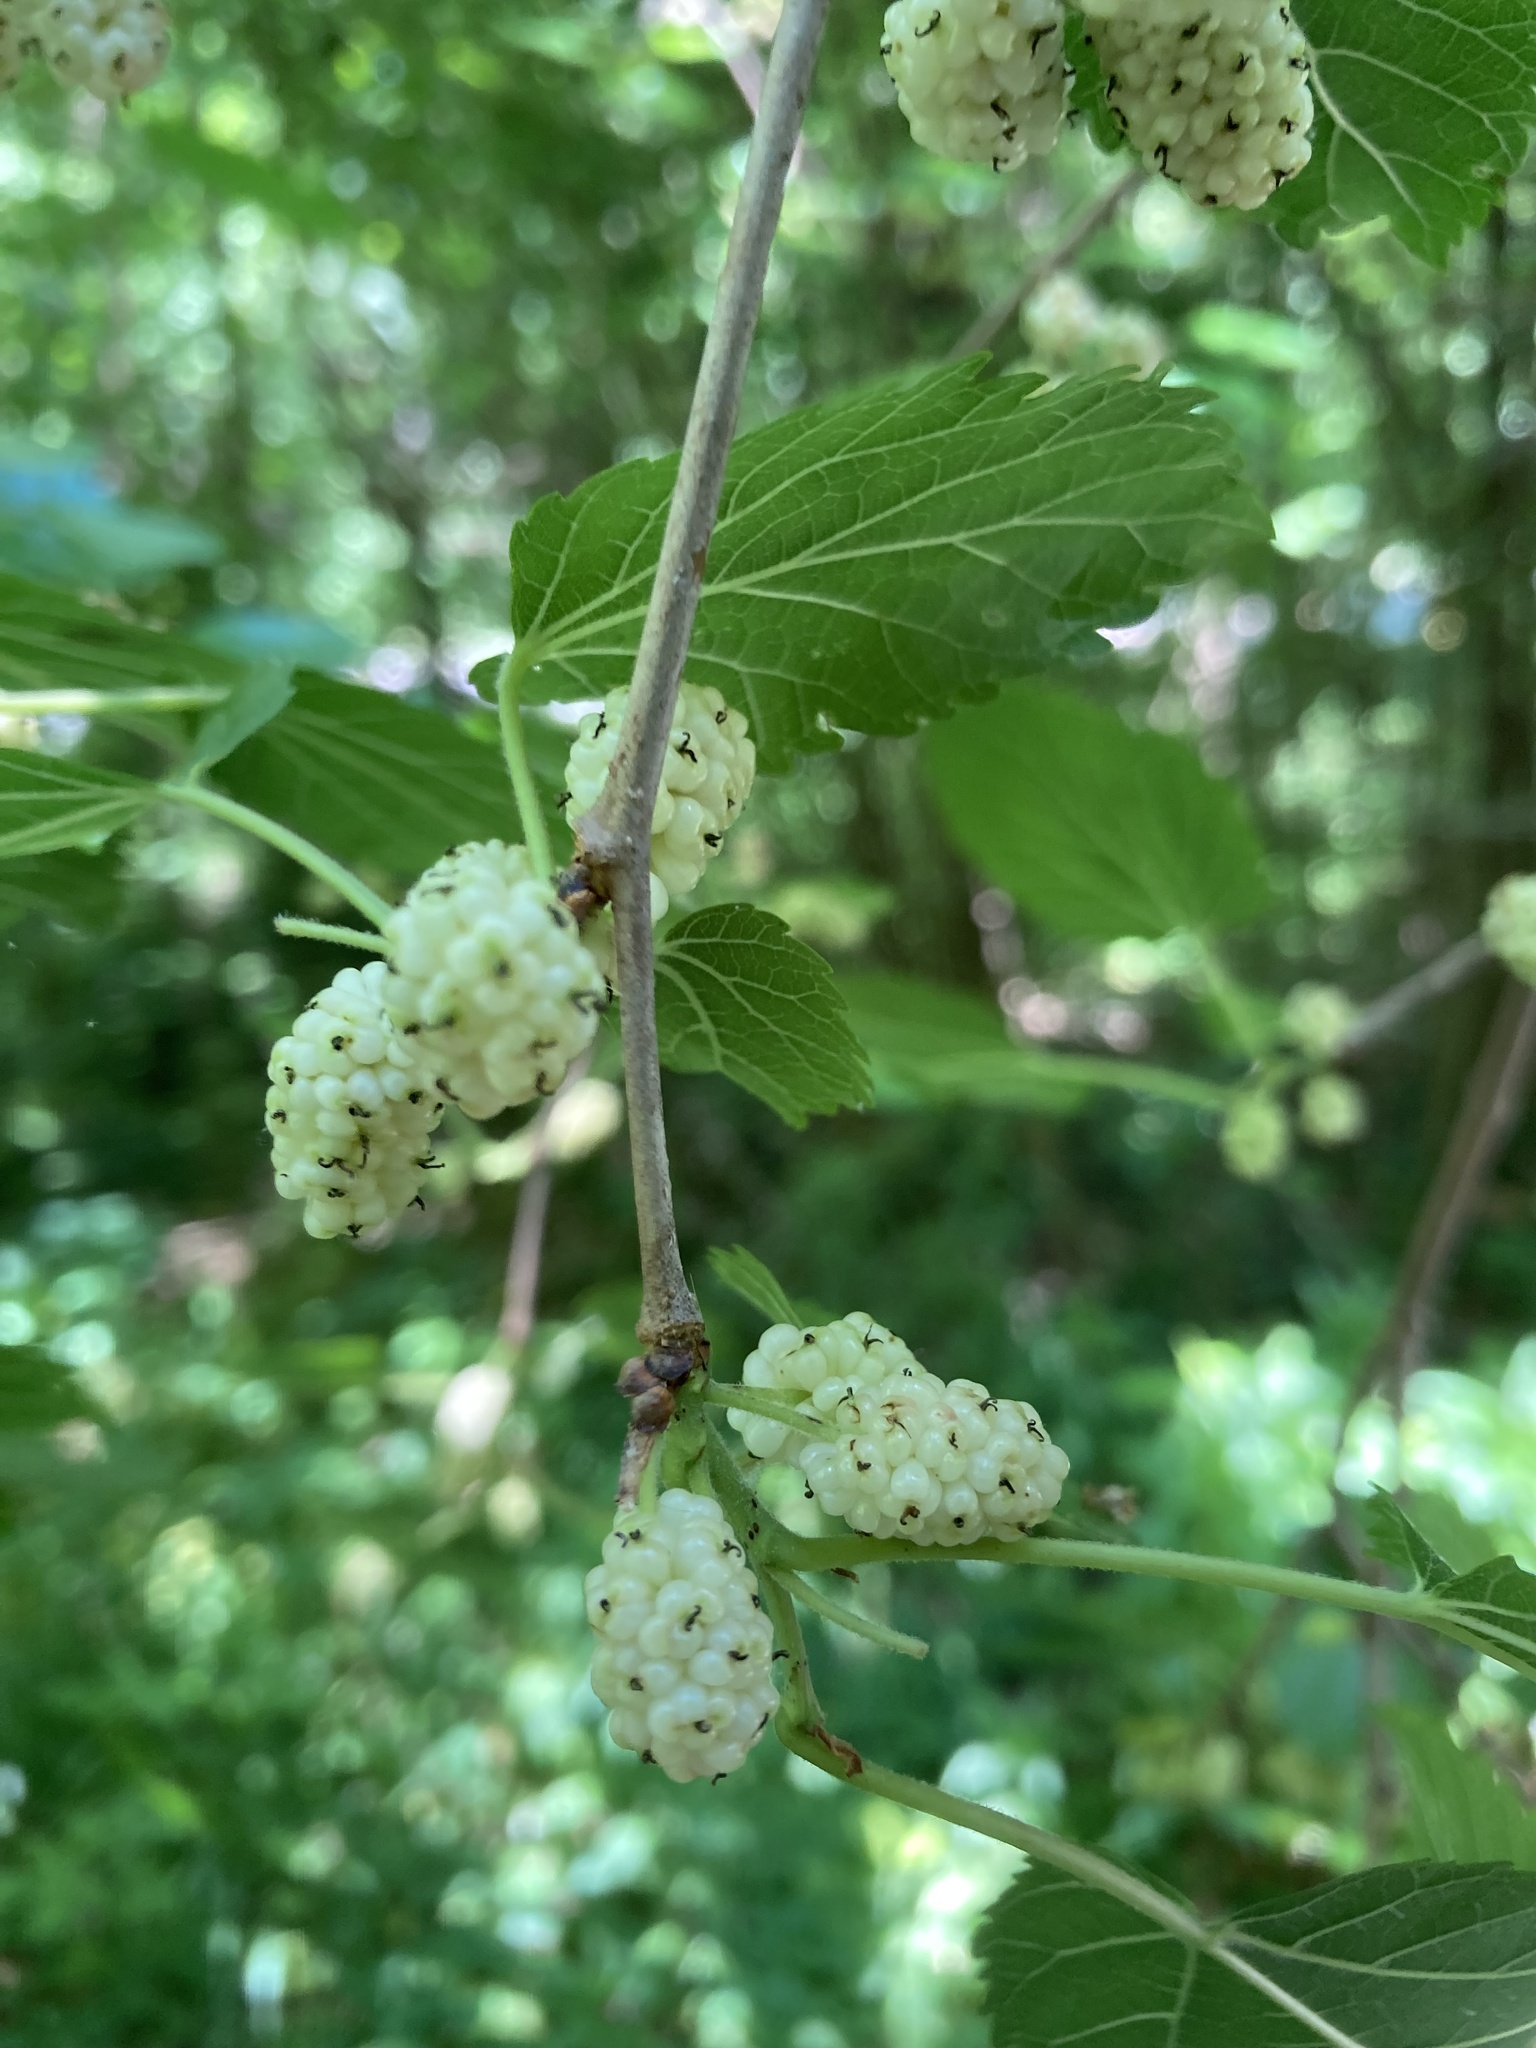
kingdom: Plantae
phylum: Tracheophyta
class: Magnoliopsida
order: Rosales
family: Moraceae
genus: Morus
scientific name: Morus alba
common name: White mulberry
